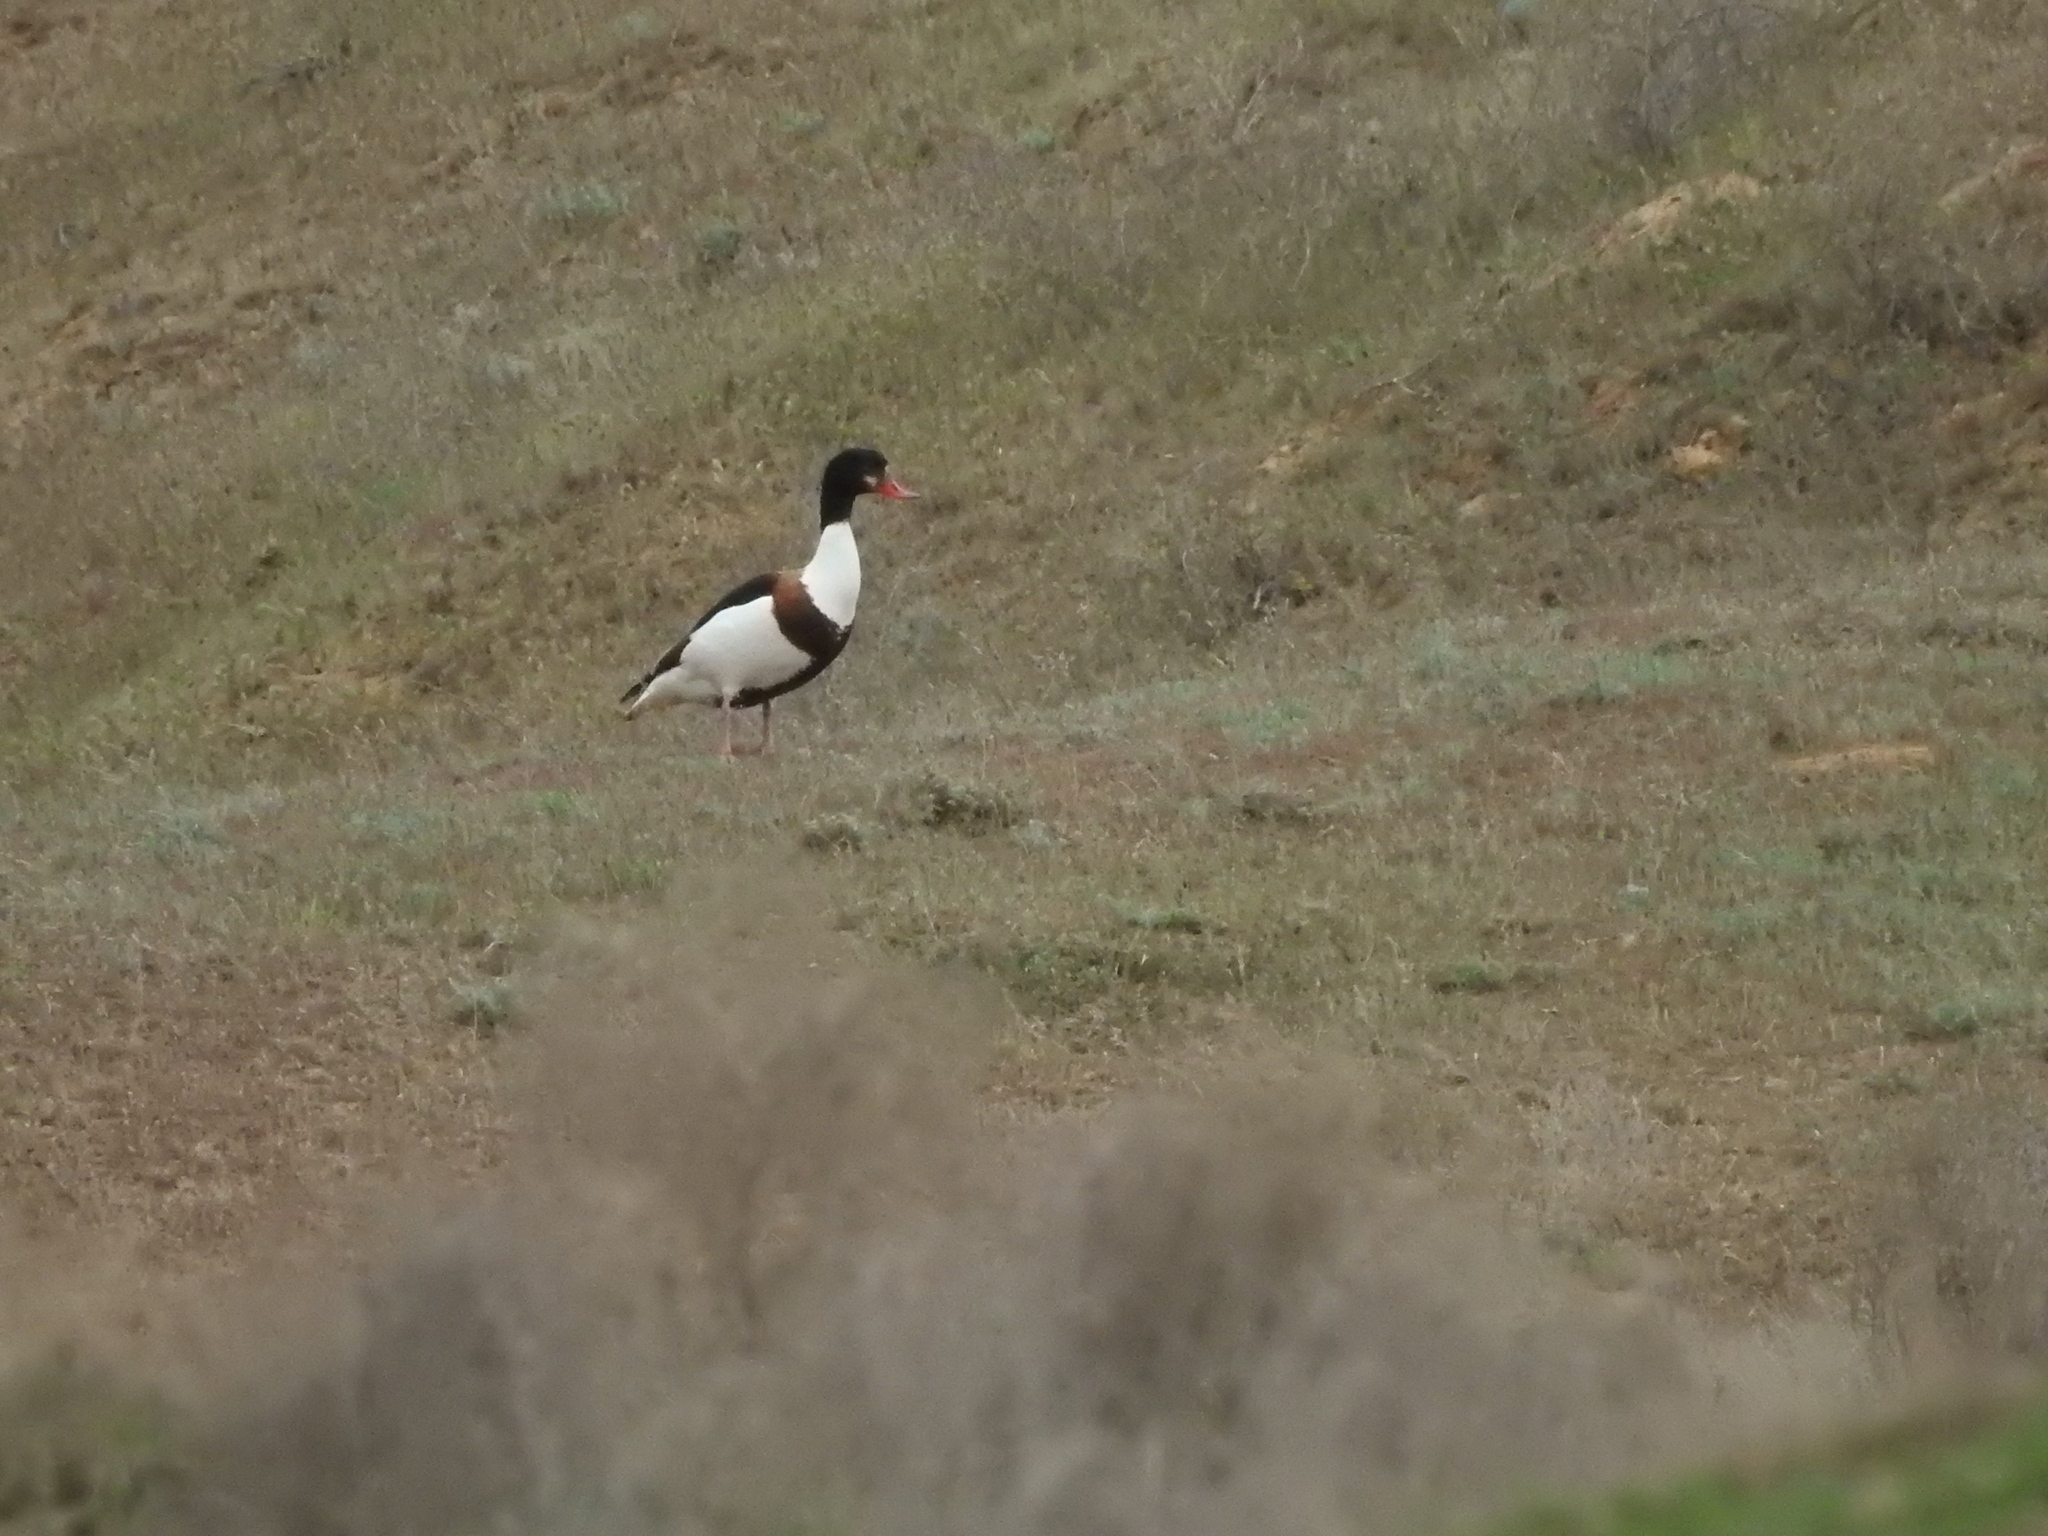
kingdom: Animalia
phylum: Chordata
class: Aves
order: Anseriformes
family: Anatidae
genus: Tadorna
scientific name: Tadorna tadorna
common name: Common shelduck
